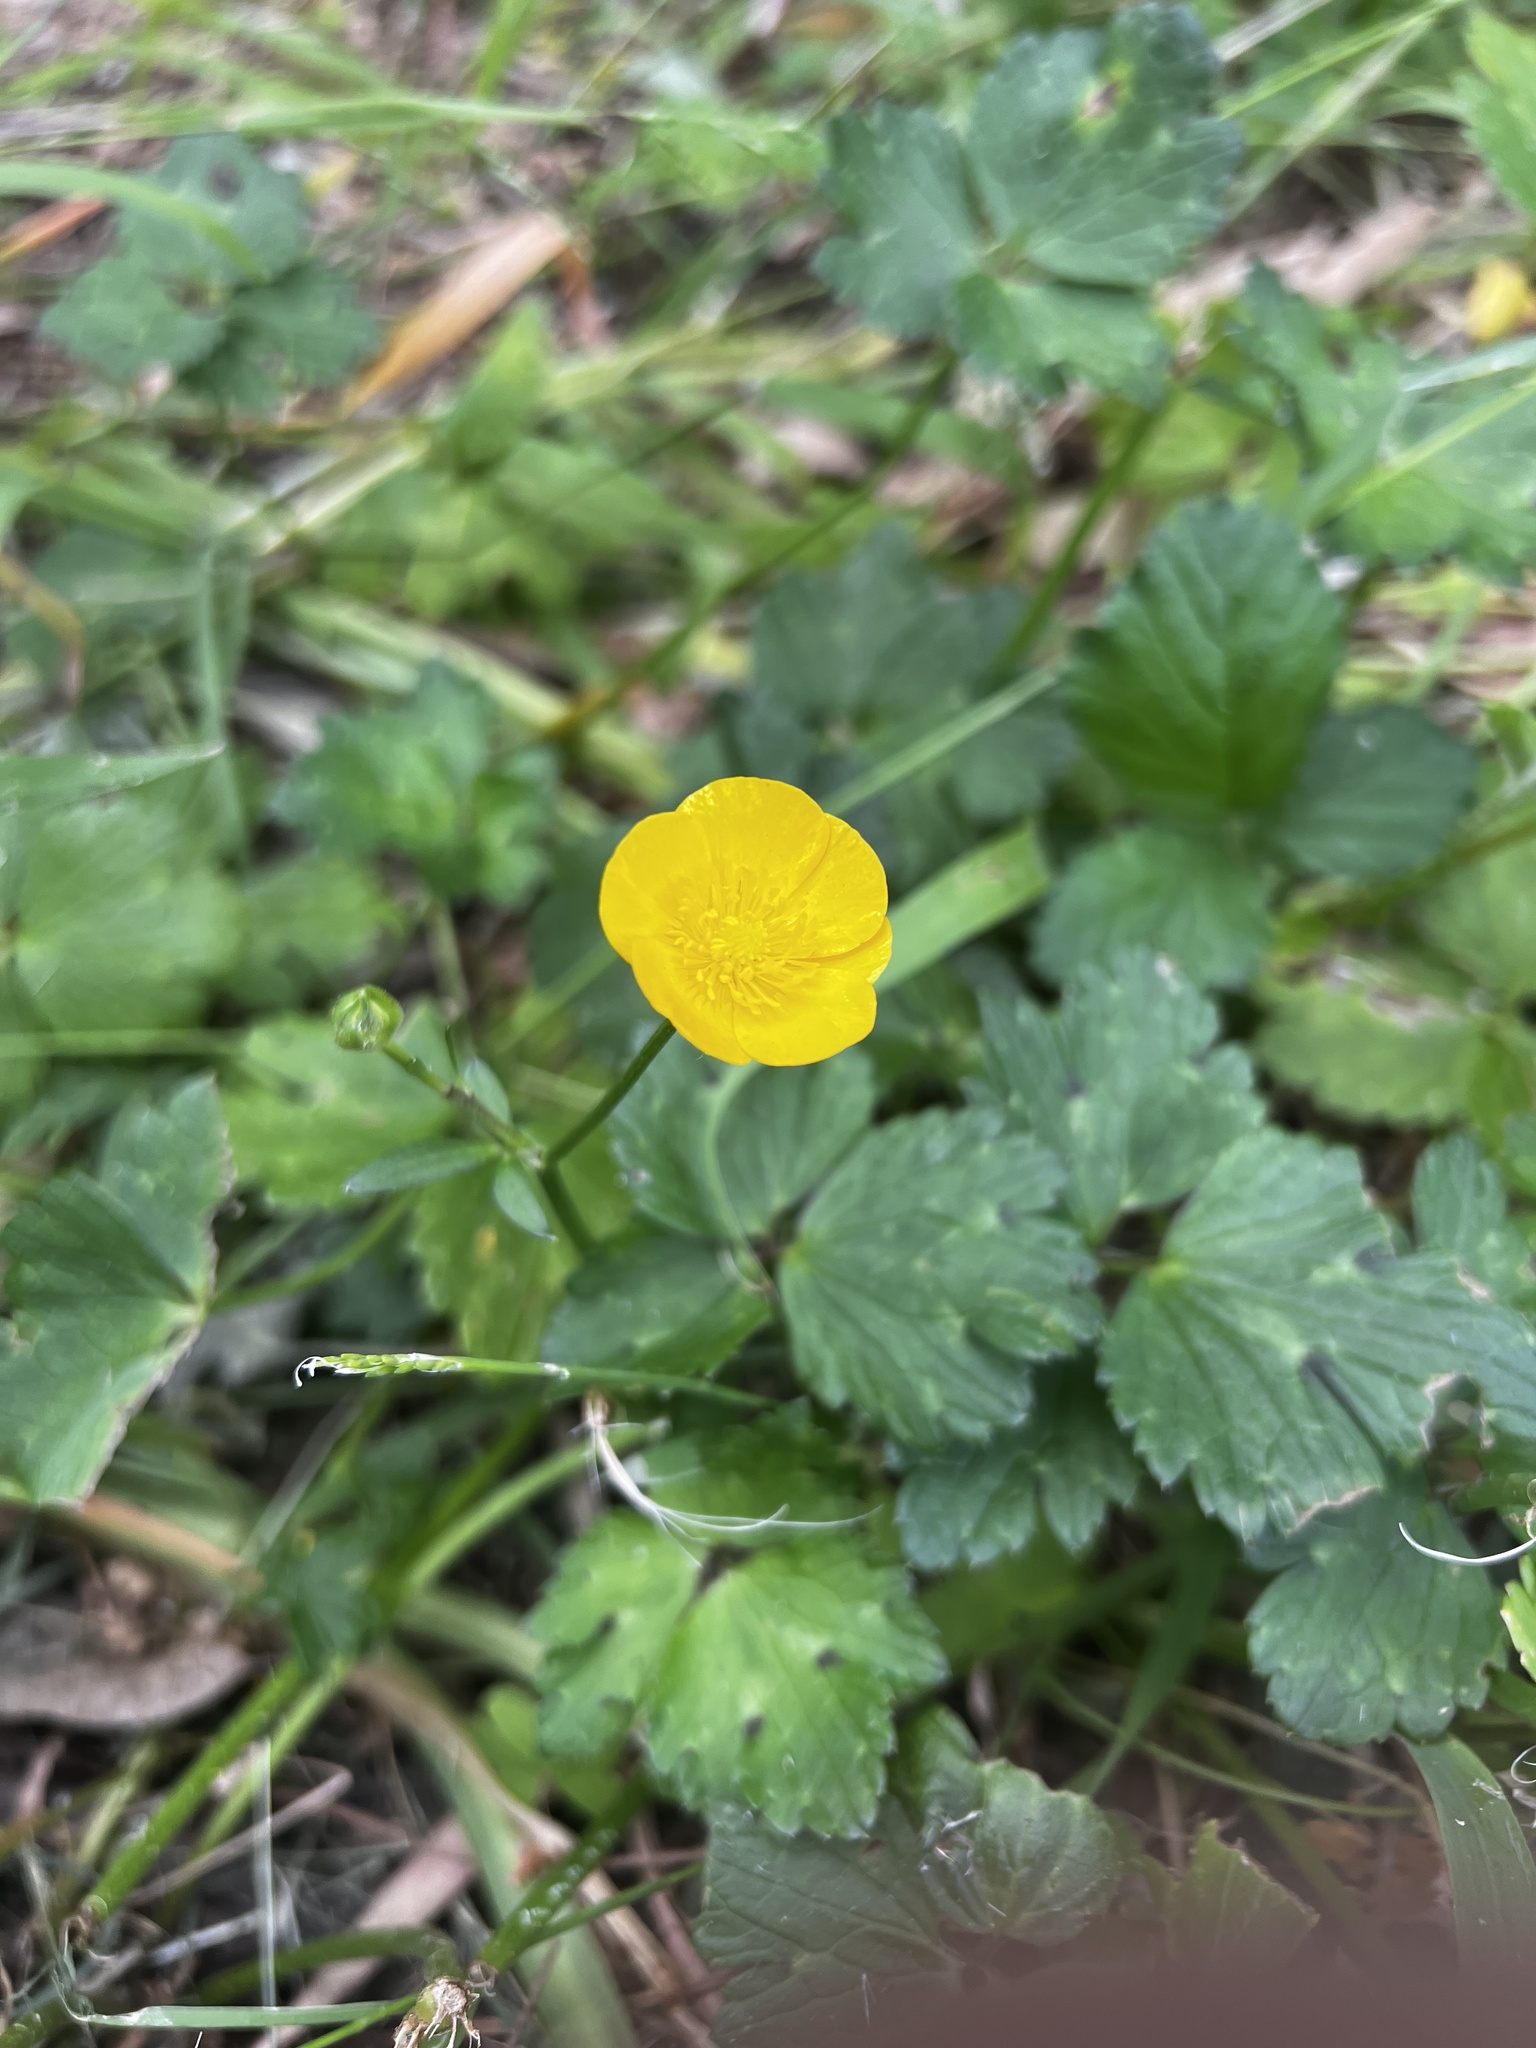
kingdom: Plantae
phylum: Tracheophyta
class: Magnoliopsida
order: Ranunculales
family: Ranunculaceae
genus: Ranunculus
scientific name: Ranunculus repens
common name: Creeping buttercup
